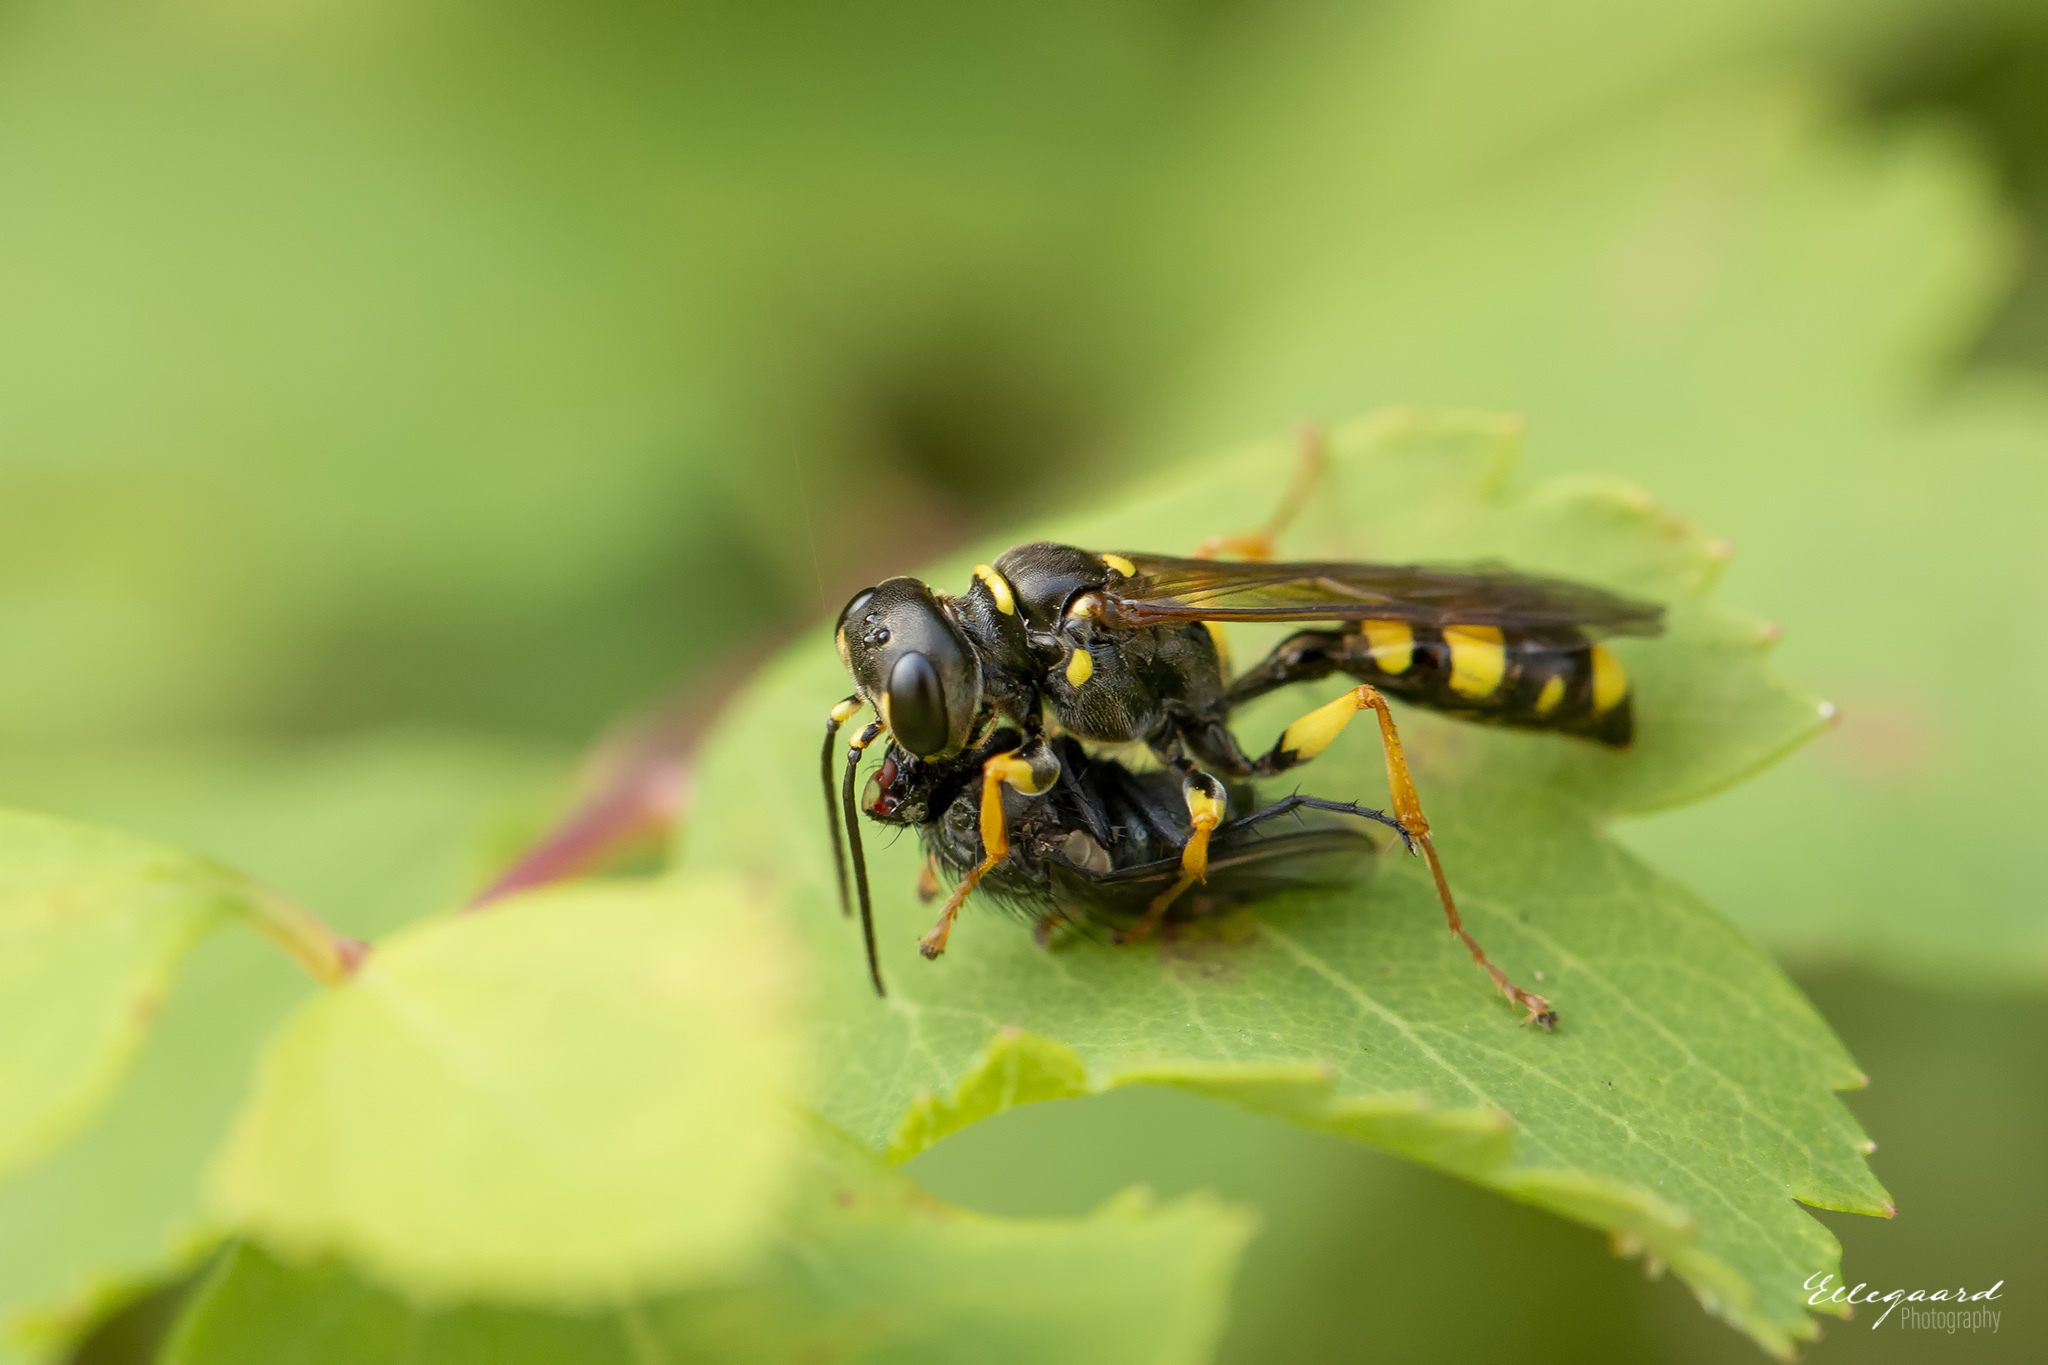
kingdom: Animalia
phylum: Arthropoda
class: Insecta
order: Hymenoptera
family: Crabronidae
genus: Mellinus
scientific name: Mellinus arvensis
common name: Field digger wasp
